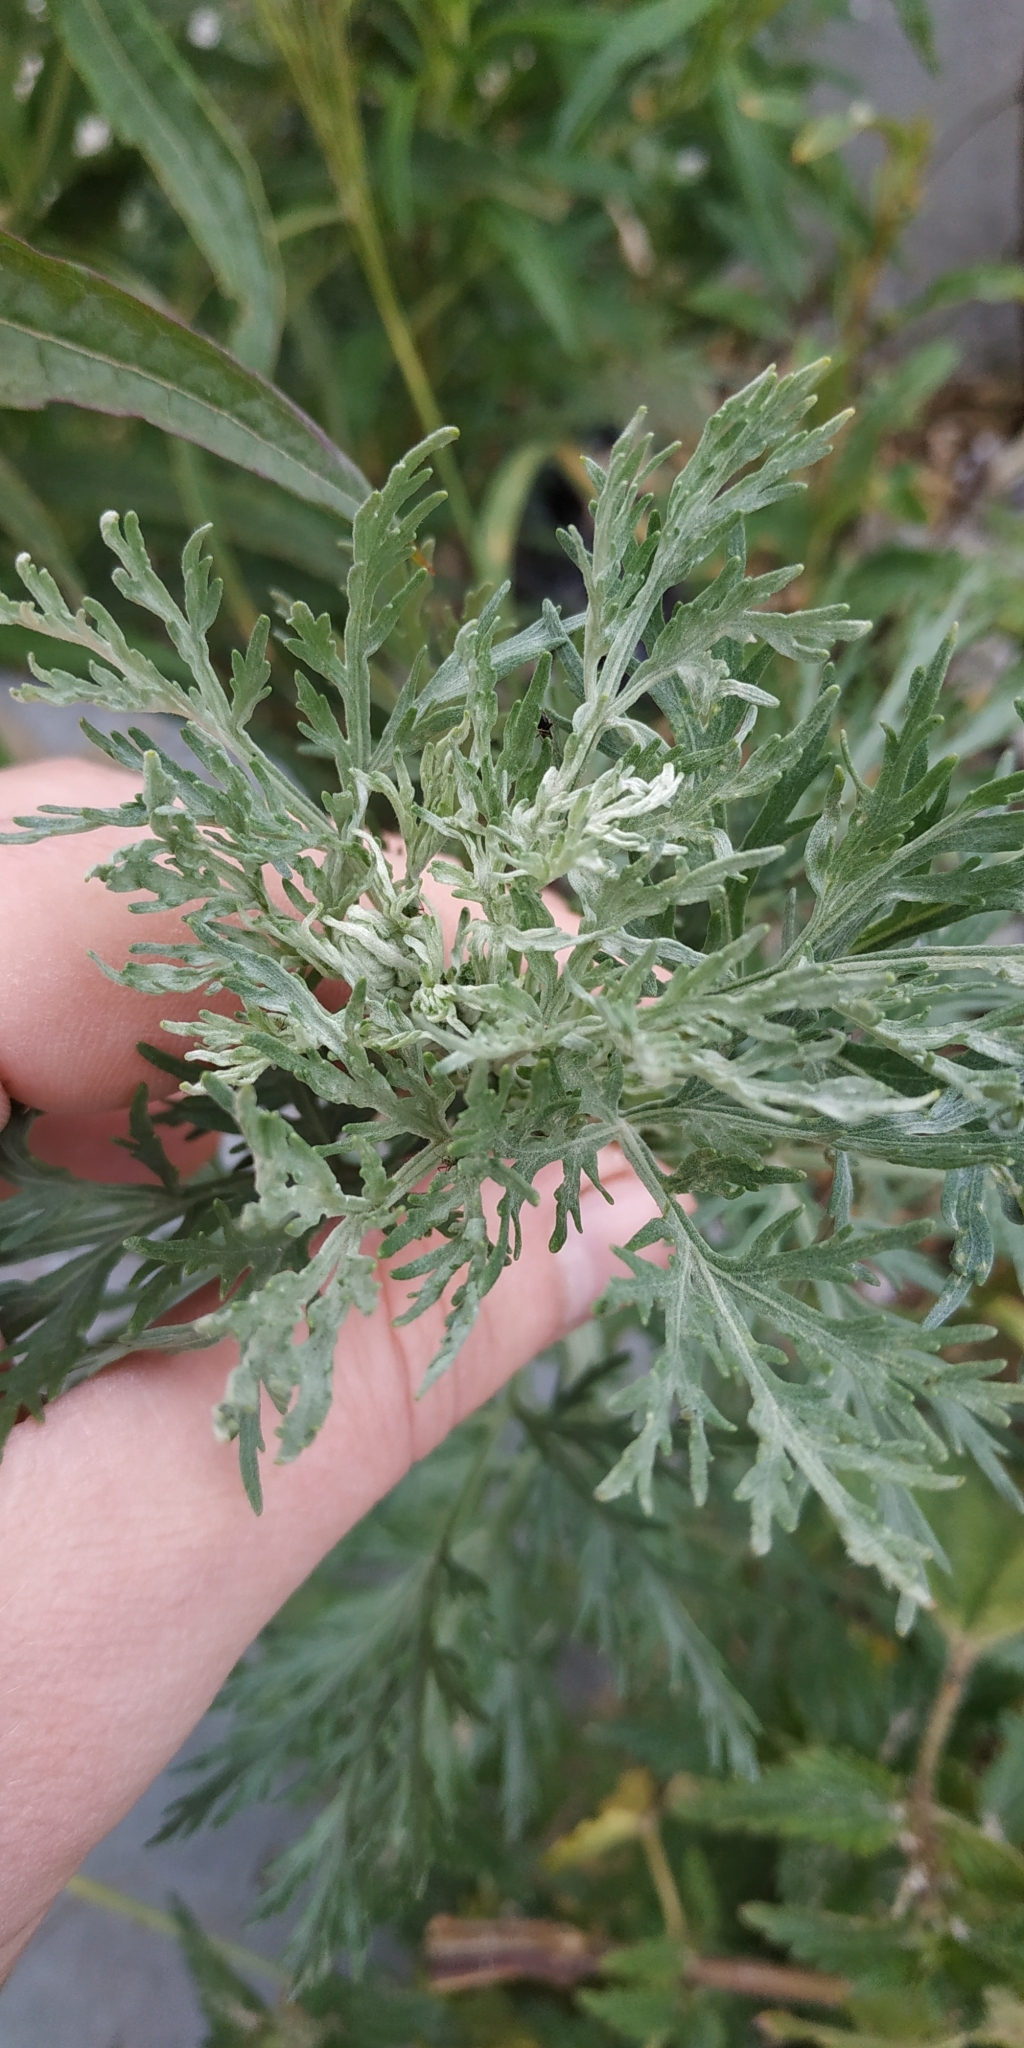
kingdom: Plantae
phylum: Tracheophyta
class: Magnoliopsida
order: Asterales
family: Asteraceae
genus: Artemisia
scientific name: Artemisia sieversiana
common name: Sieversian wormwood
